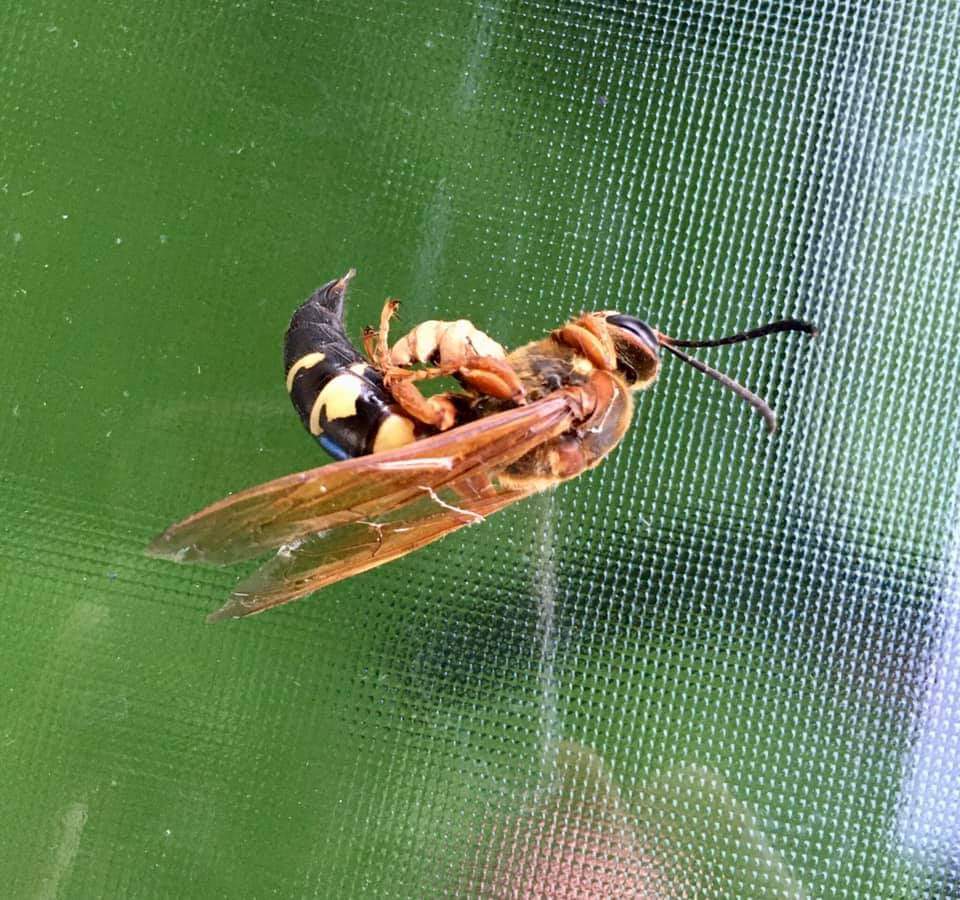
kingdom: Animalia
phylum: Arthropoda
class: Insecta
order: Hymenoptera
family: Crabronidae
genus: Sphecius
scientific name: Sphecius speciosus
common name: Cicada killer
